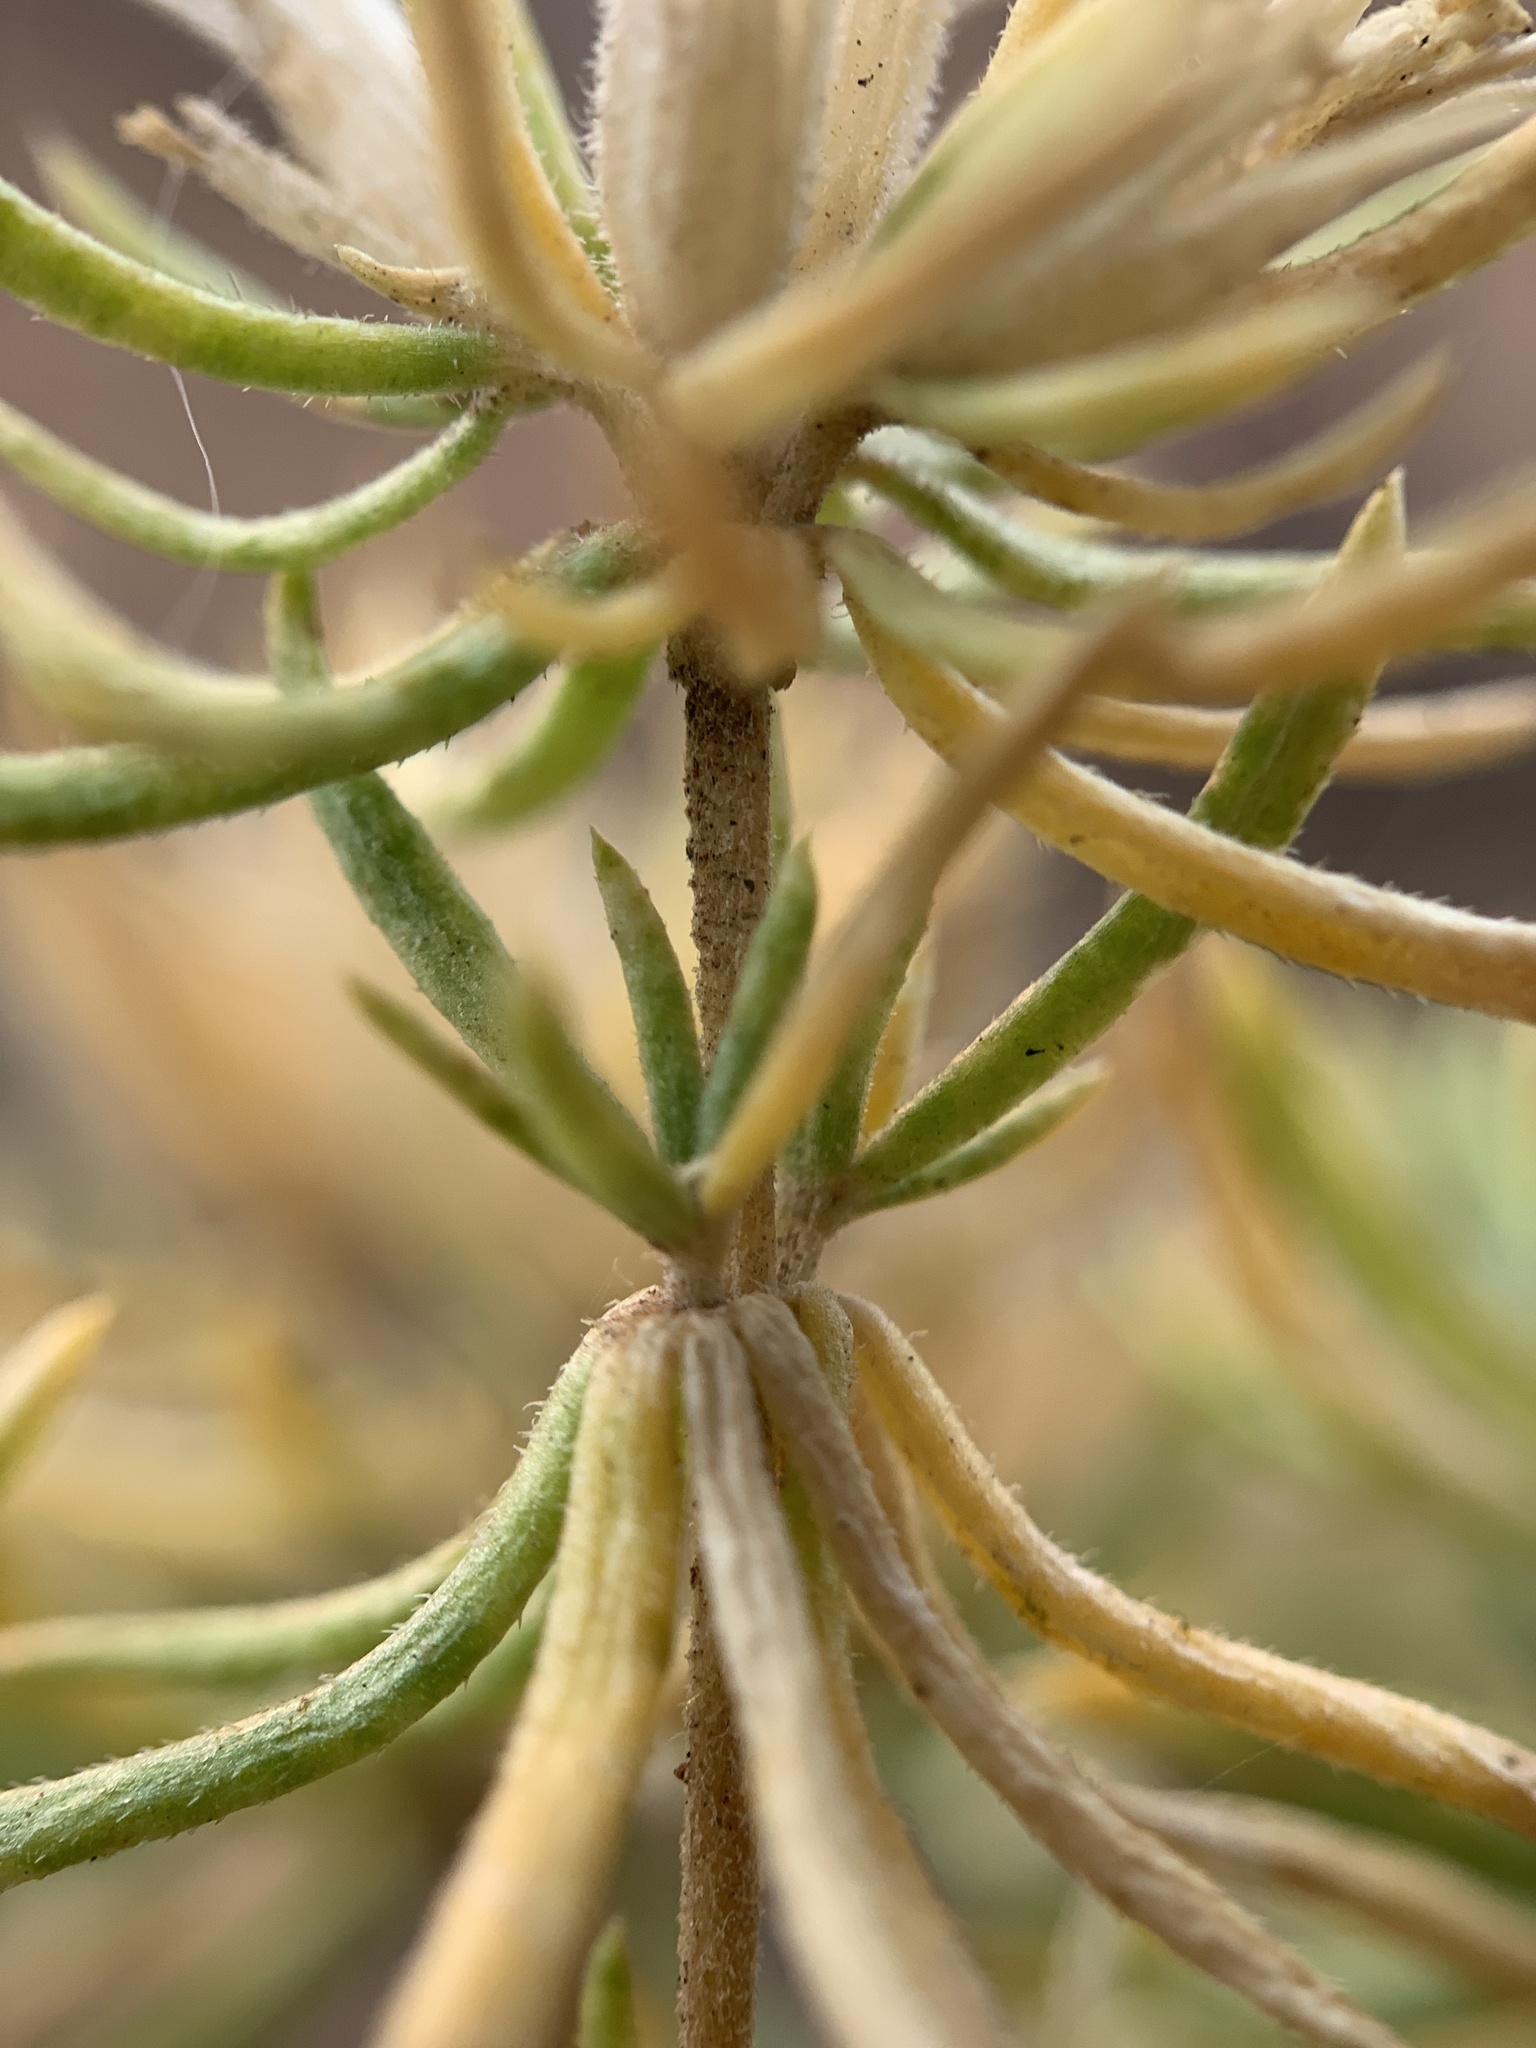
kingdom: Plantae
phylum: Tracheophyta
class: Magnoliopsida
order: Ericales
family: Polemoniaceae
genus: Leptosiphon
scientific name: Leptosiphon nuttallii
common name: Nuttall's linanthus
